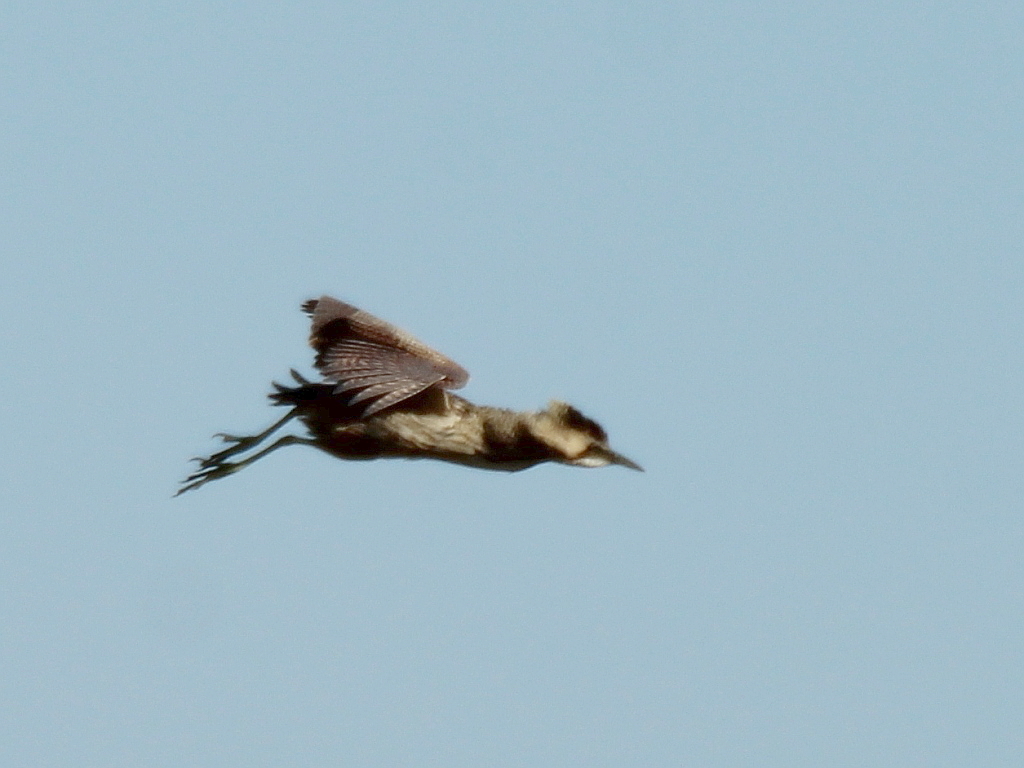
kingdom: Animalia
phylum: Chordata
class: Aves
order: Pelecaniformes
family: Ardeidae
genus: Botaurus
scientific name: Botaurus stellaris
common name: Eurasian bittern
